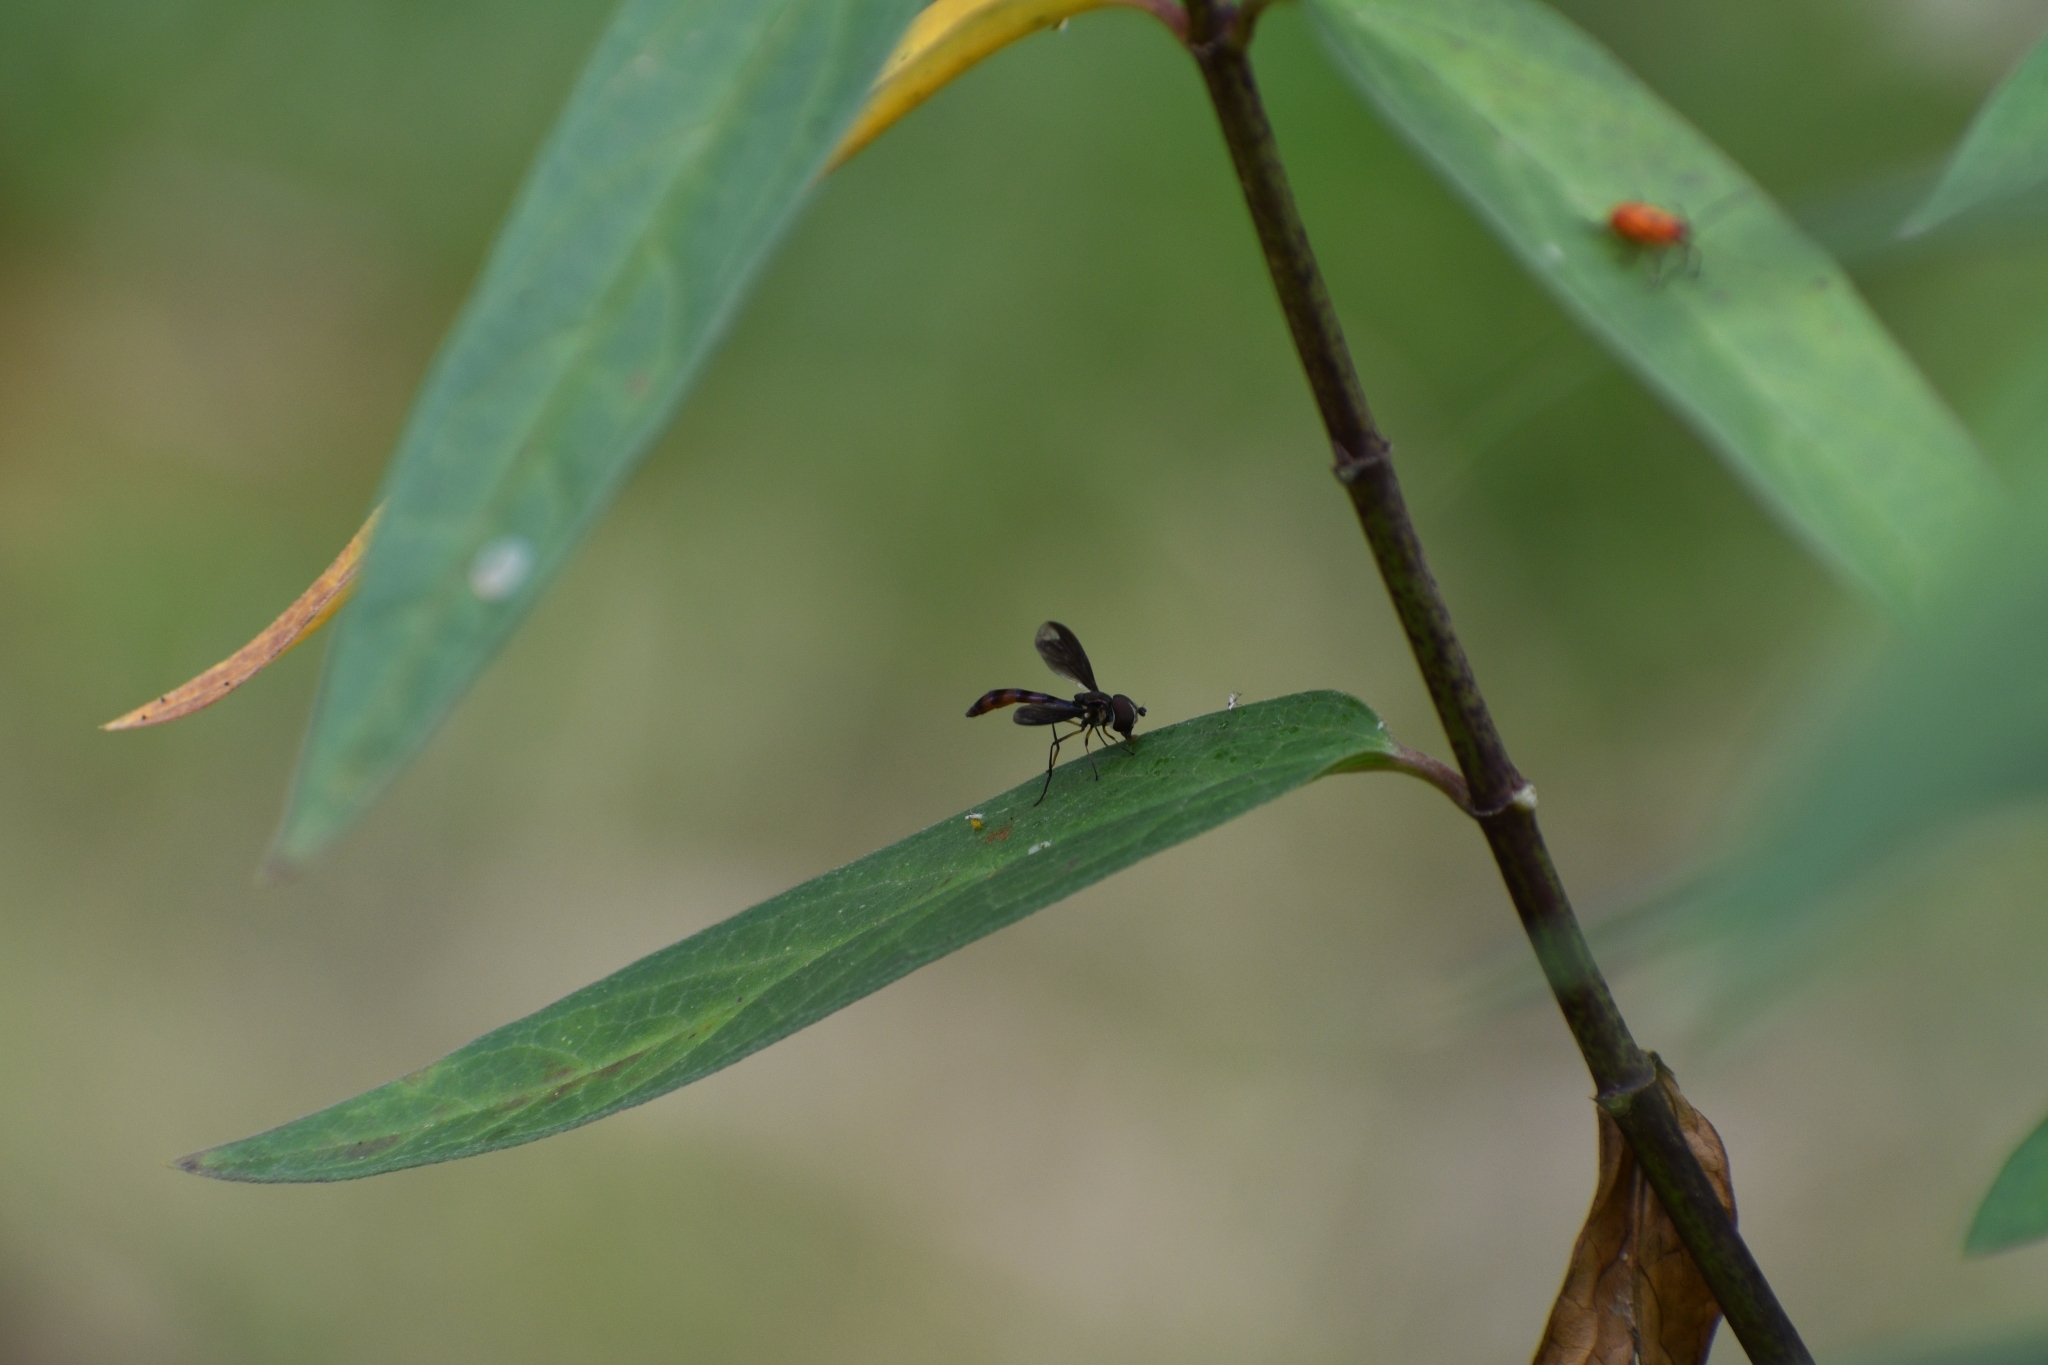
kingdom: Animalia
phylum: Arthropoda
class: Insecta
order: Diptera
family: Syrphidae
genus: Ocyptamus
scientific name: Ocyptamus fuscipennis
